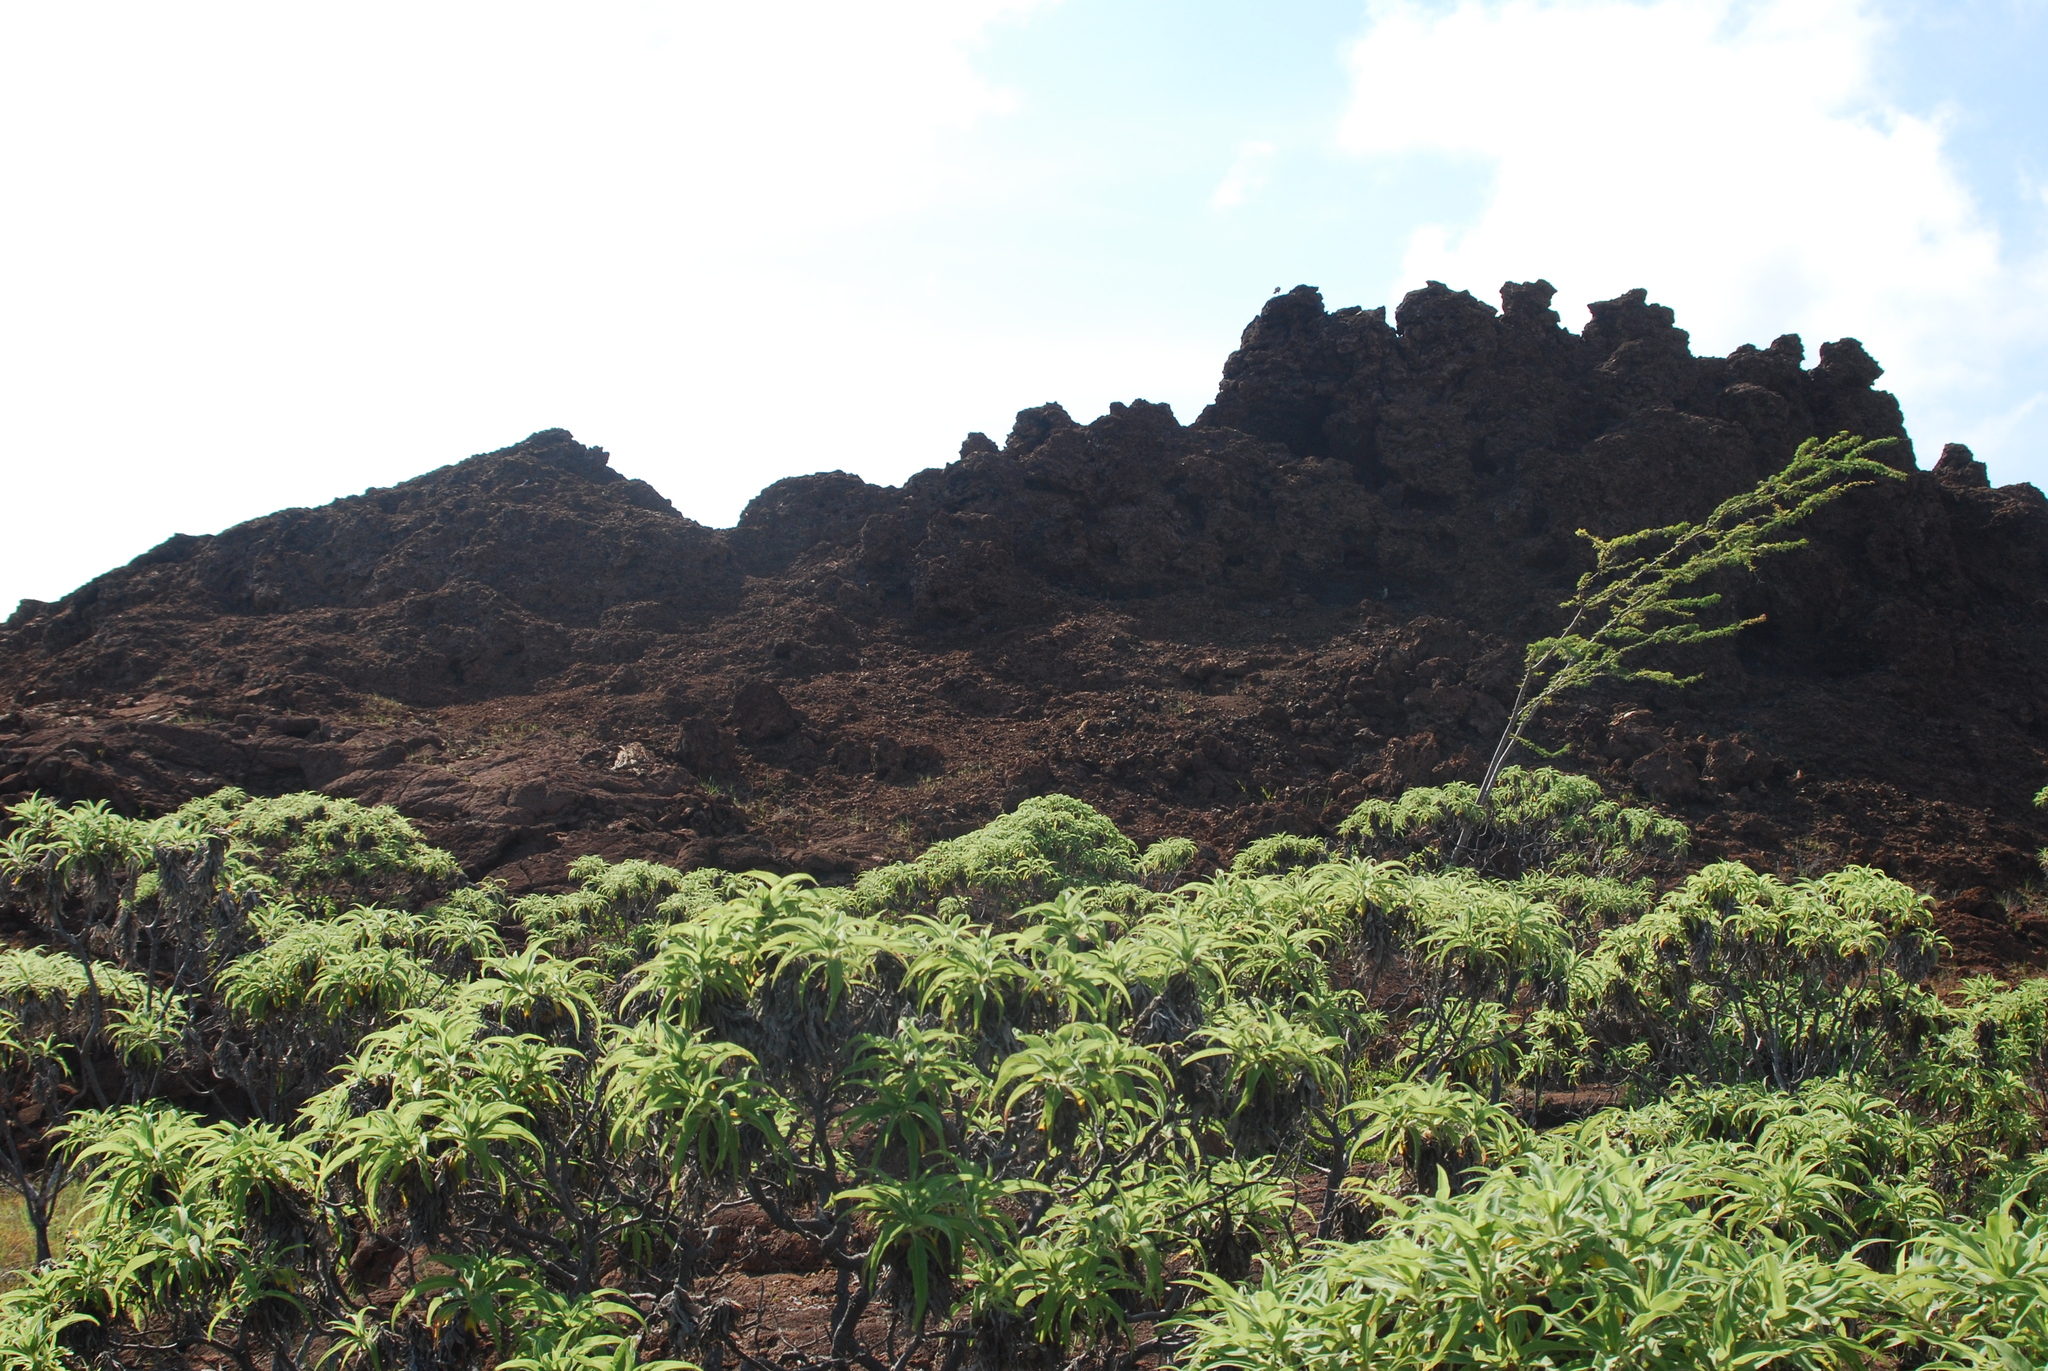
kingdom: Plantae
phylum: Tracheophyta
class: Magnoliopsida
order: Asterales
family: Asteraceae
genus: Scalesia
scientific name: Scalesia stewartii
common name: Stewart's scalesia
